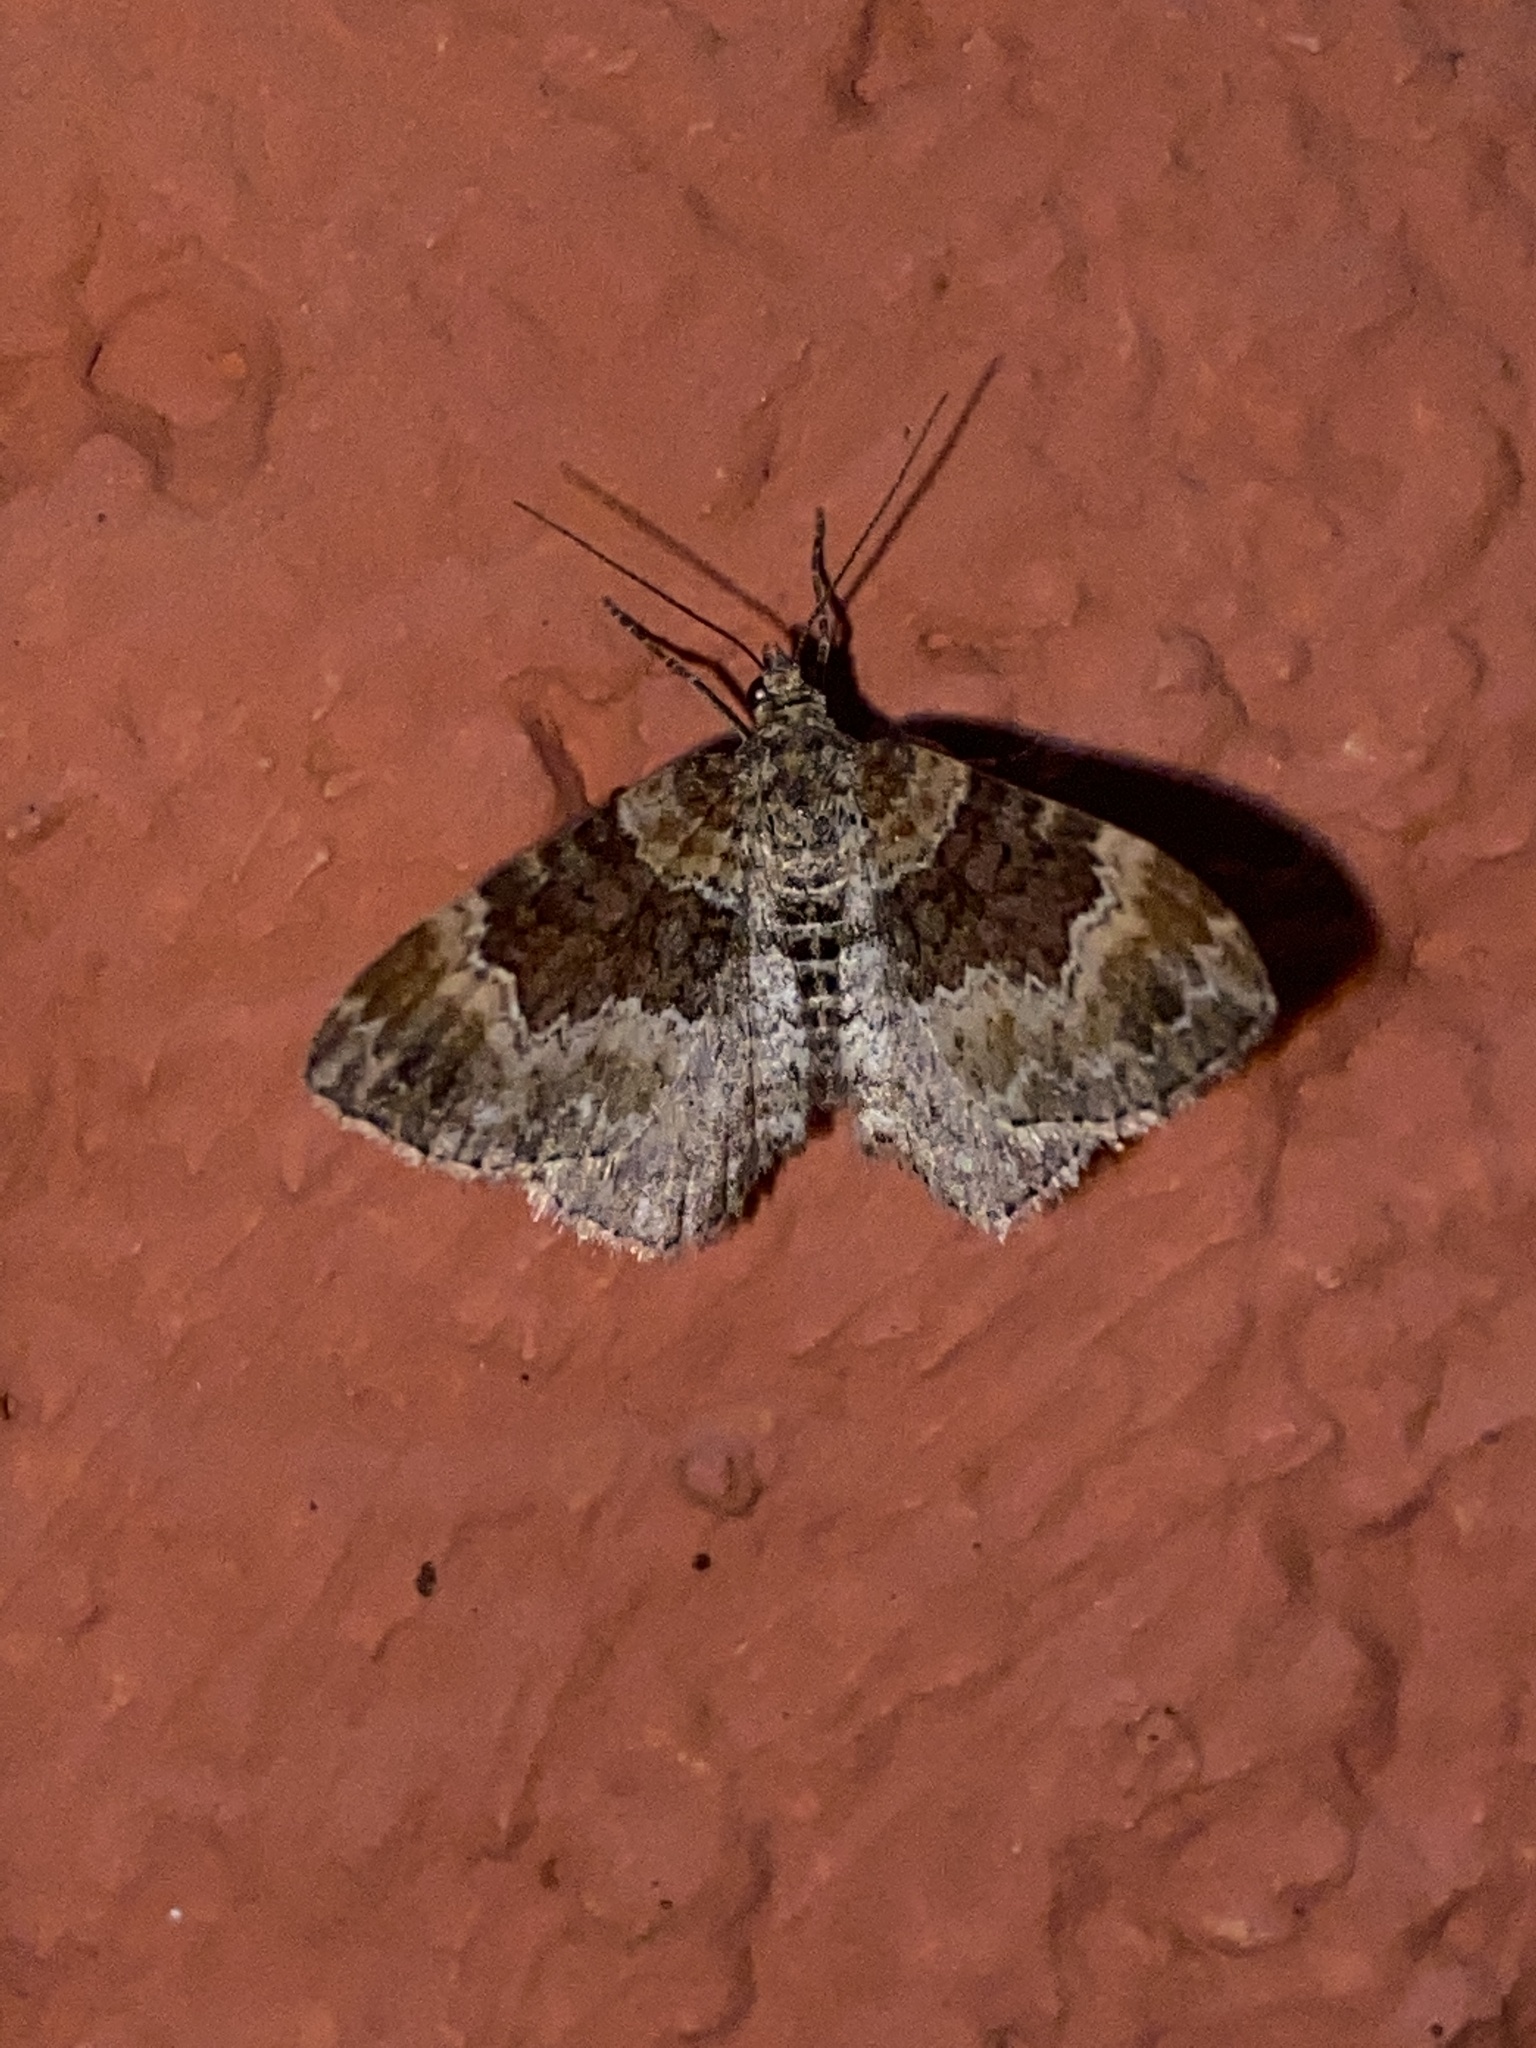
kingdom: Animalia
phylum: Arthropoda
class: Insecta
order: Lepidoptera
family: Geometridae
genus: Xanthorhoe
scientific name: Xanthorhoe spadicearia
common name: Red twin-spot carpet
